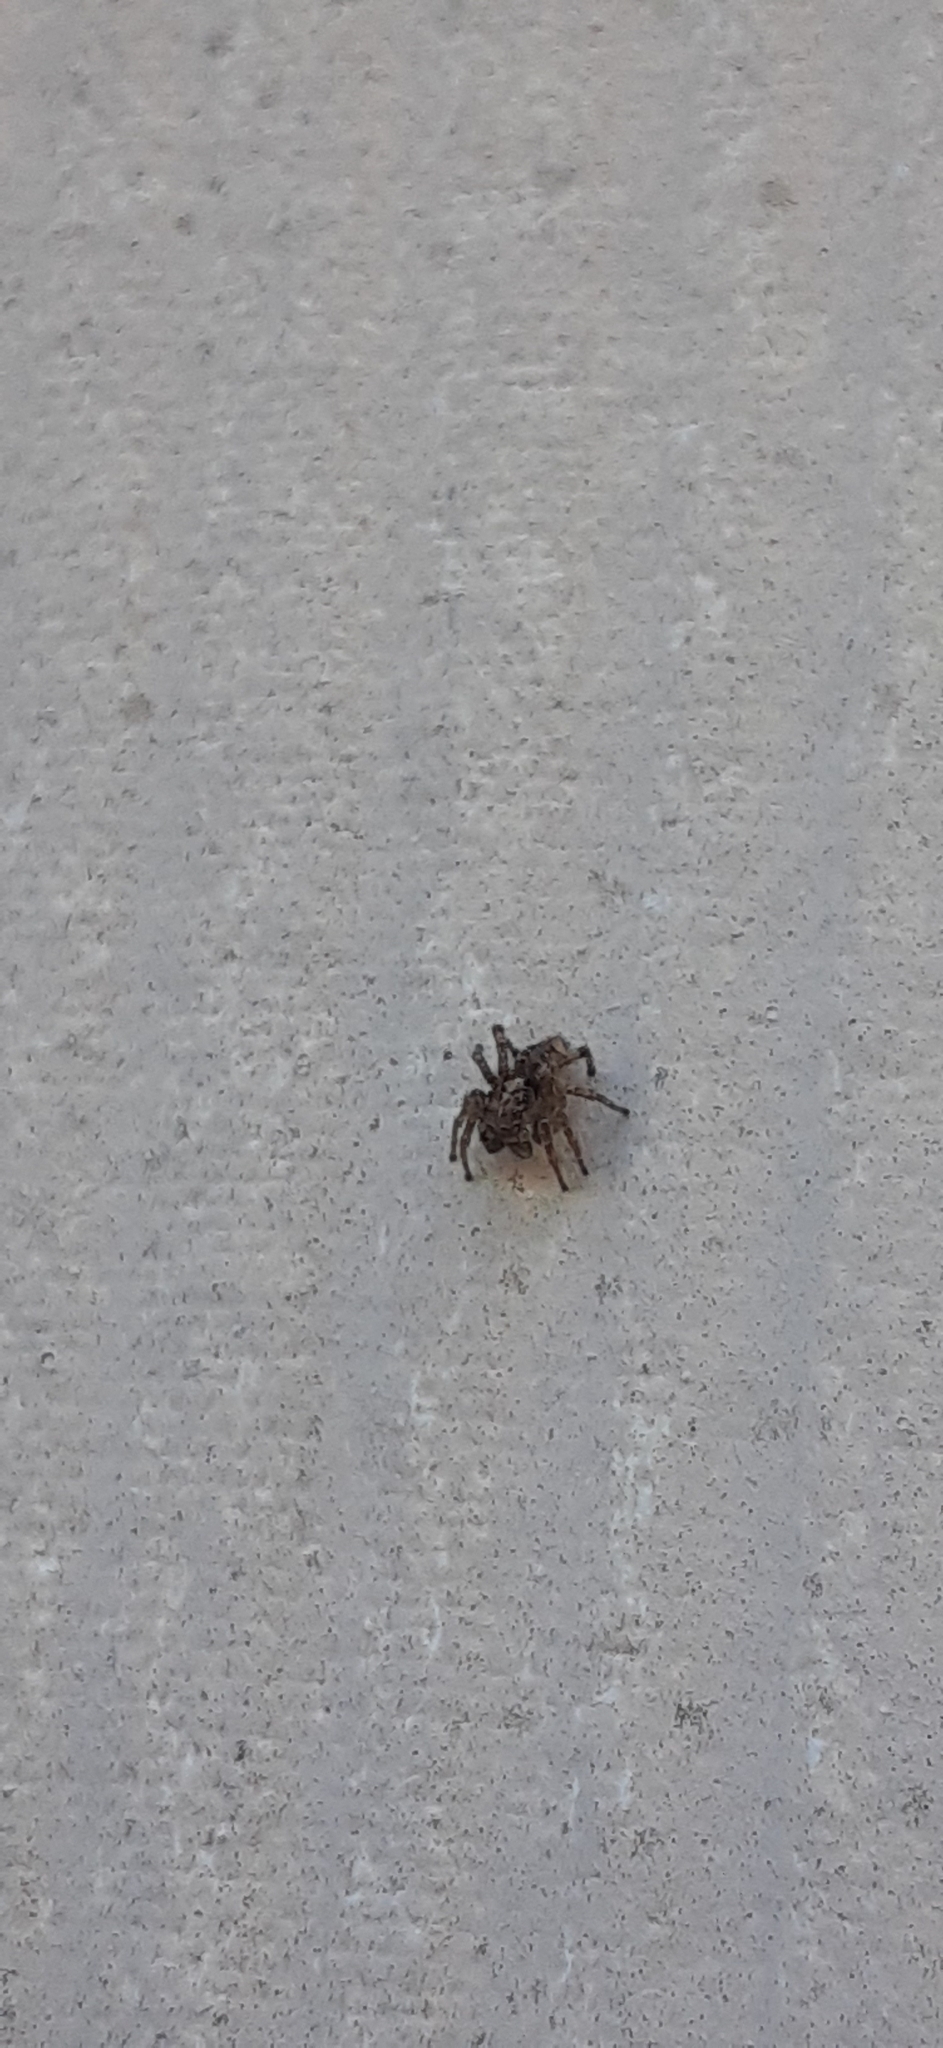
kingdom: Animalia
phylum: Arthropoda
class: Arachnida
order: Araneae
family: Salticidae
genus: Attulus
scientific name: Attulus fasciger
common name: Asiatic wall jumping spider
